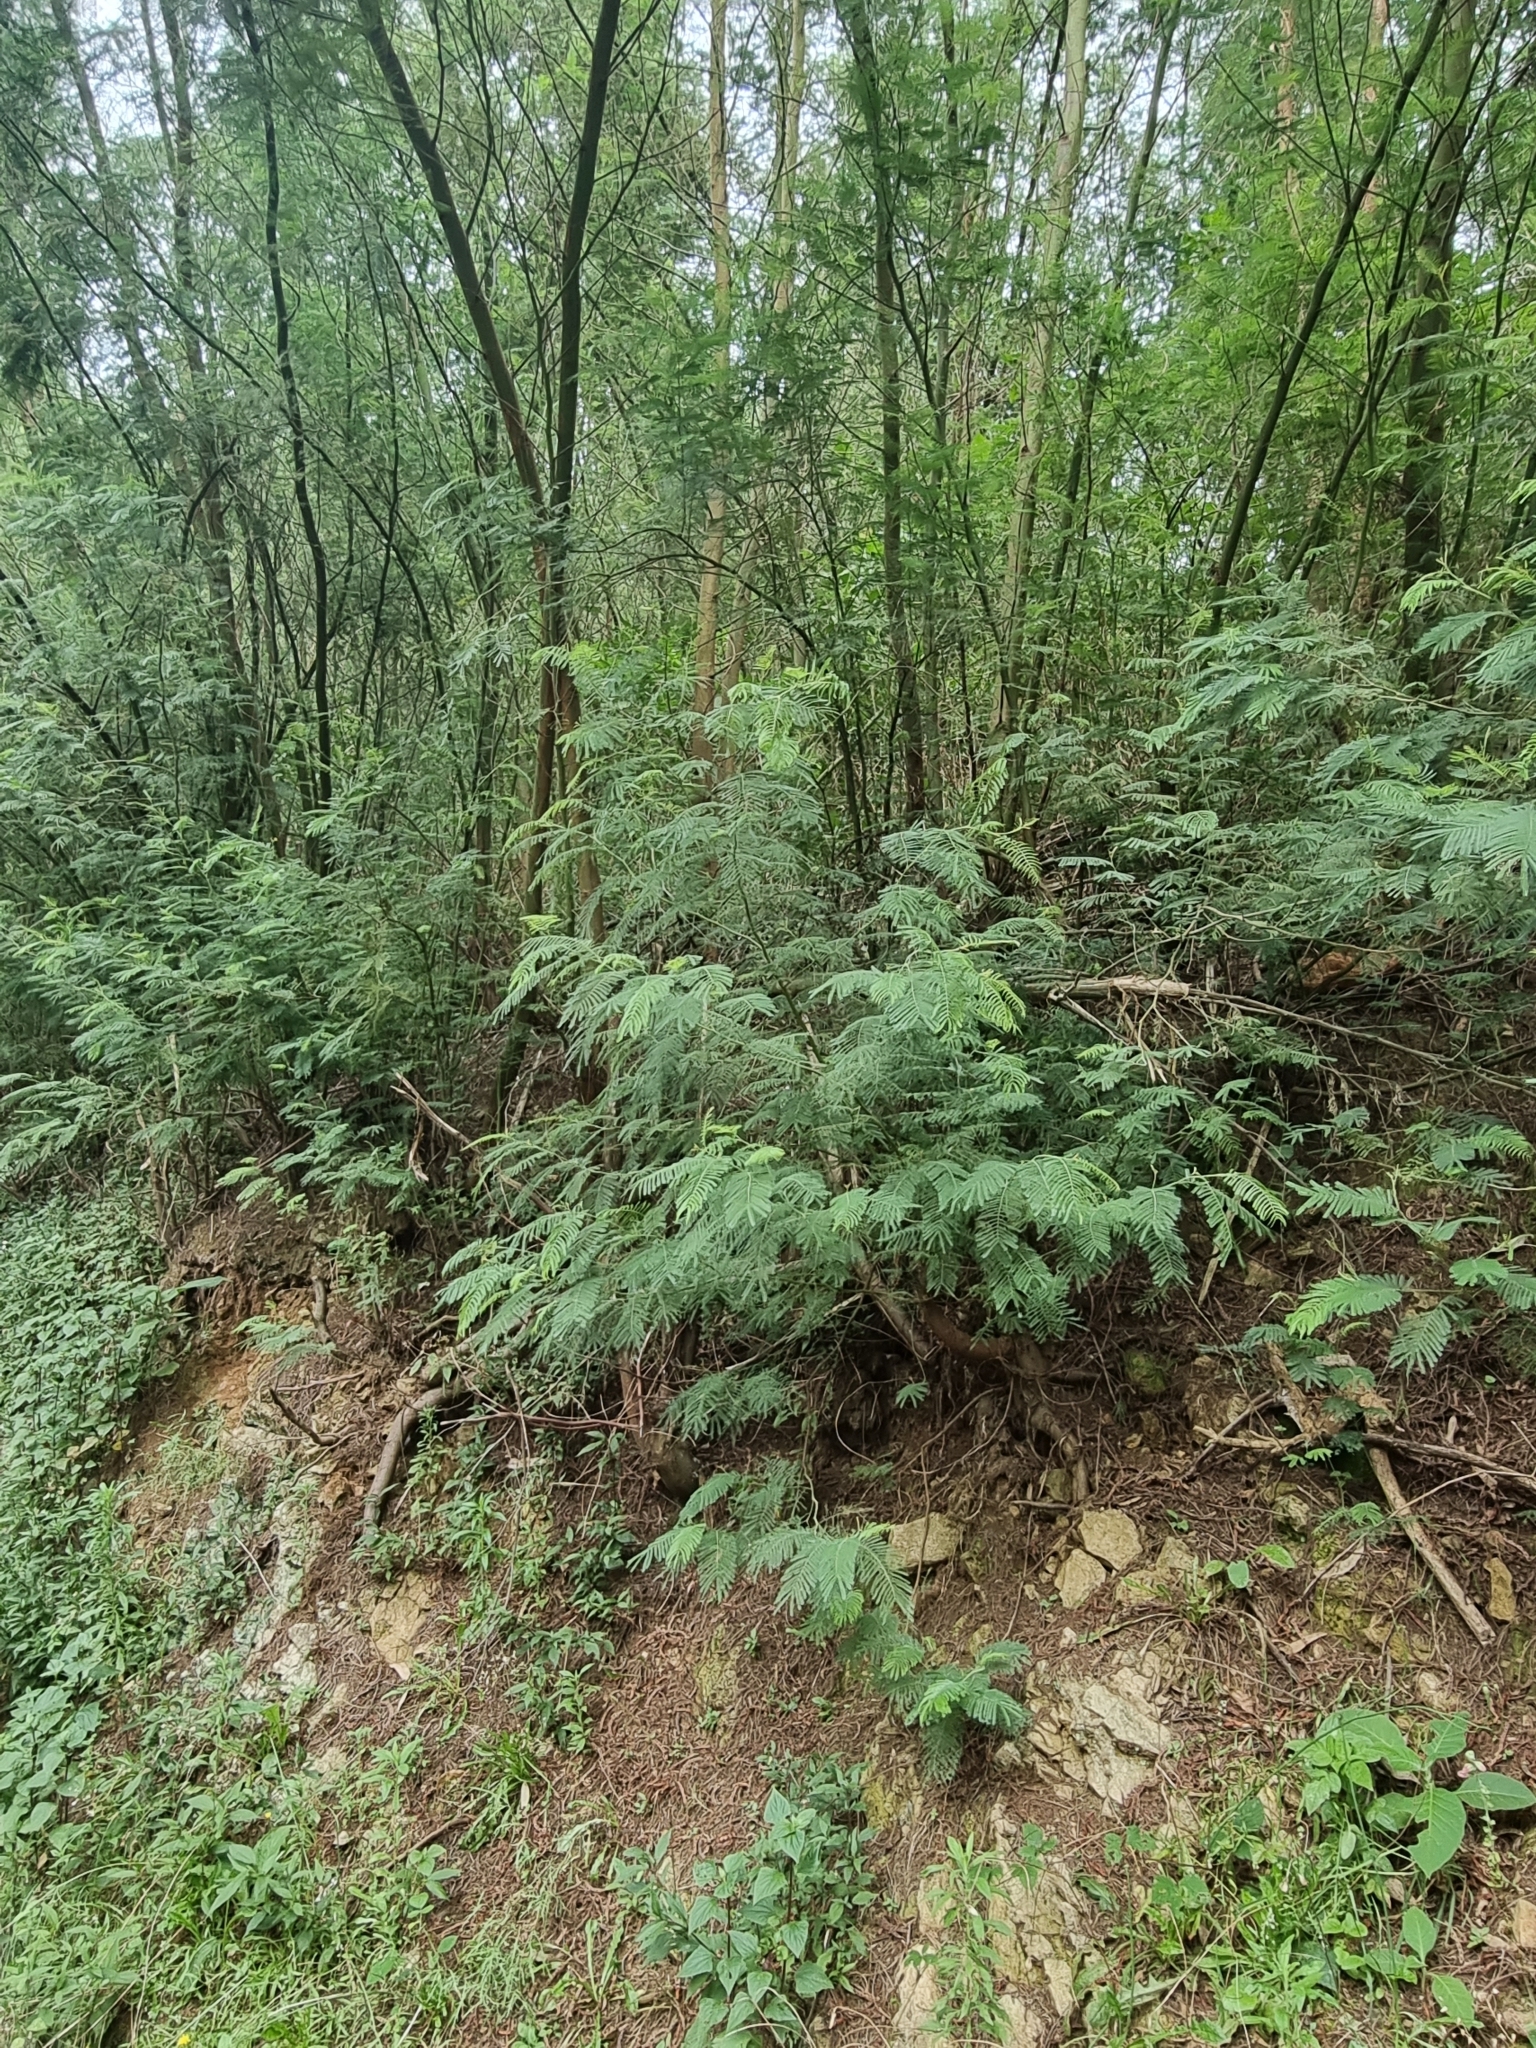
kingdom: Plantae
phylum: Tracheophyta
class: Magnoliopsida
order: Fabales
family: Fabaceae
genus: Acacia
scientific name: Acacia mearnsii
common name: Black wattle
